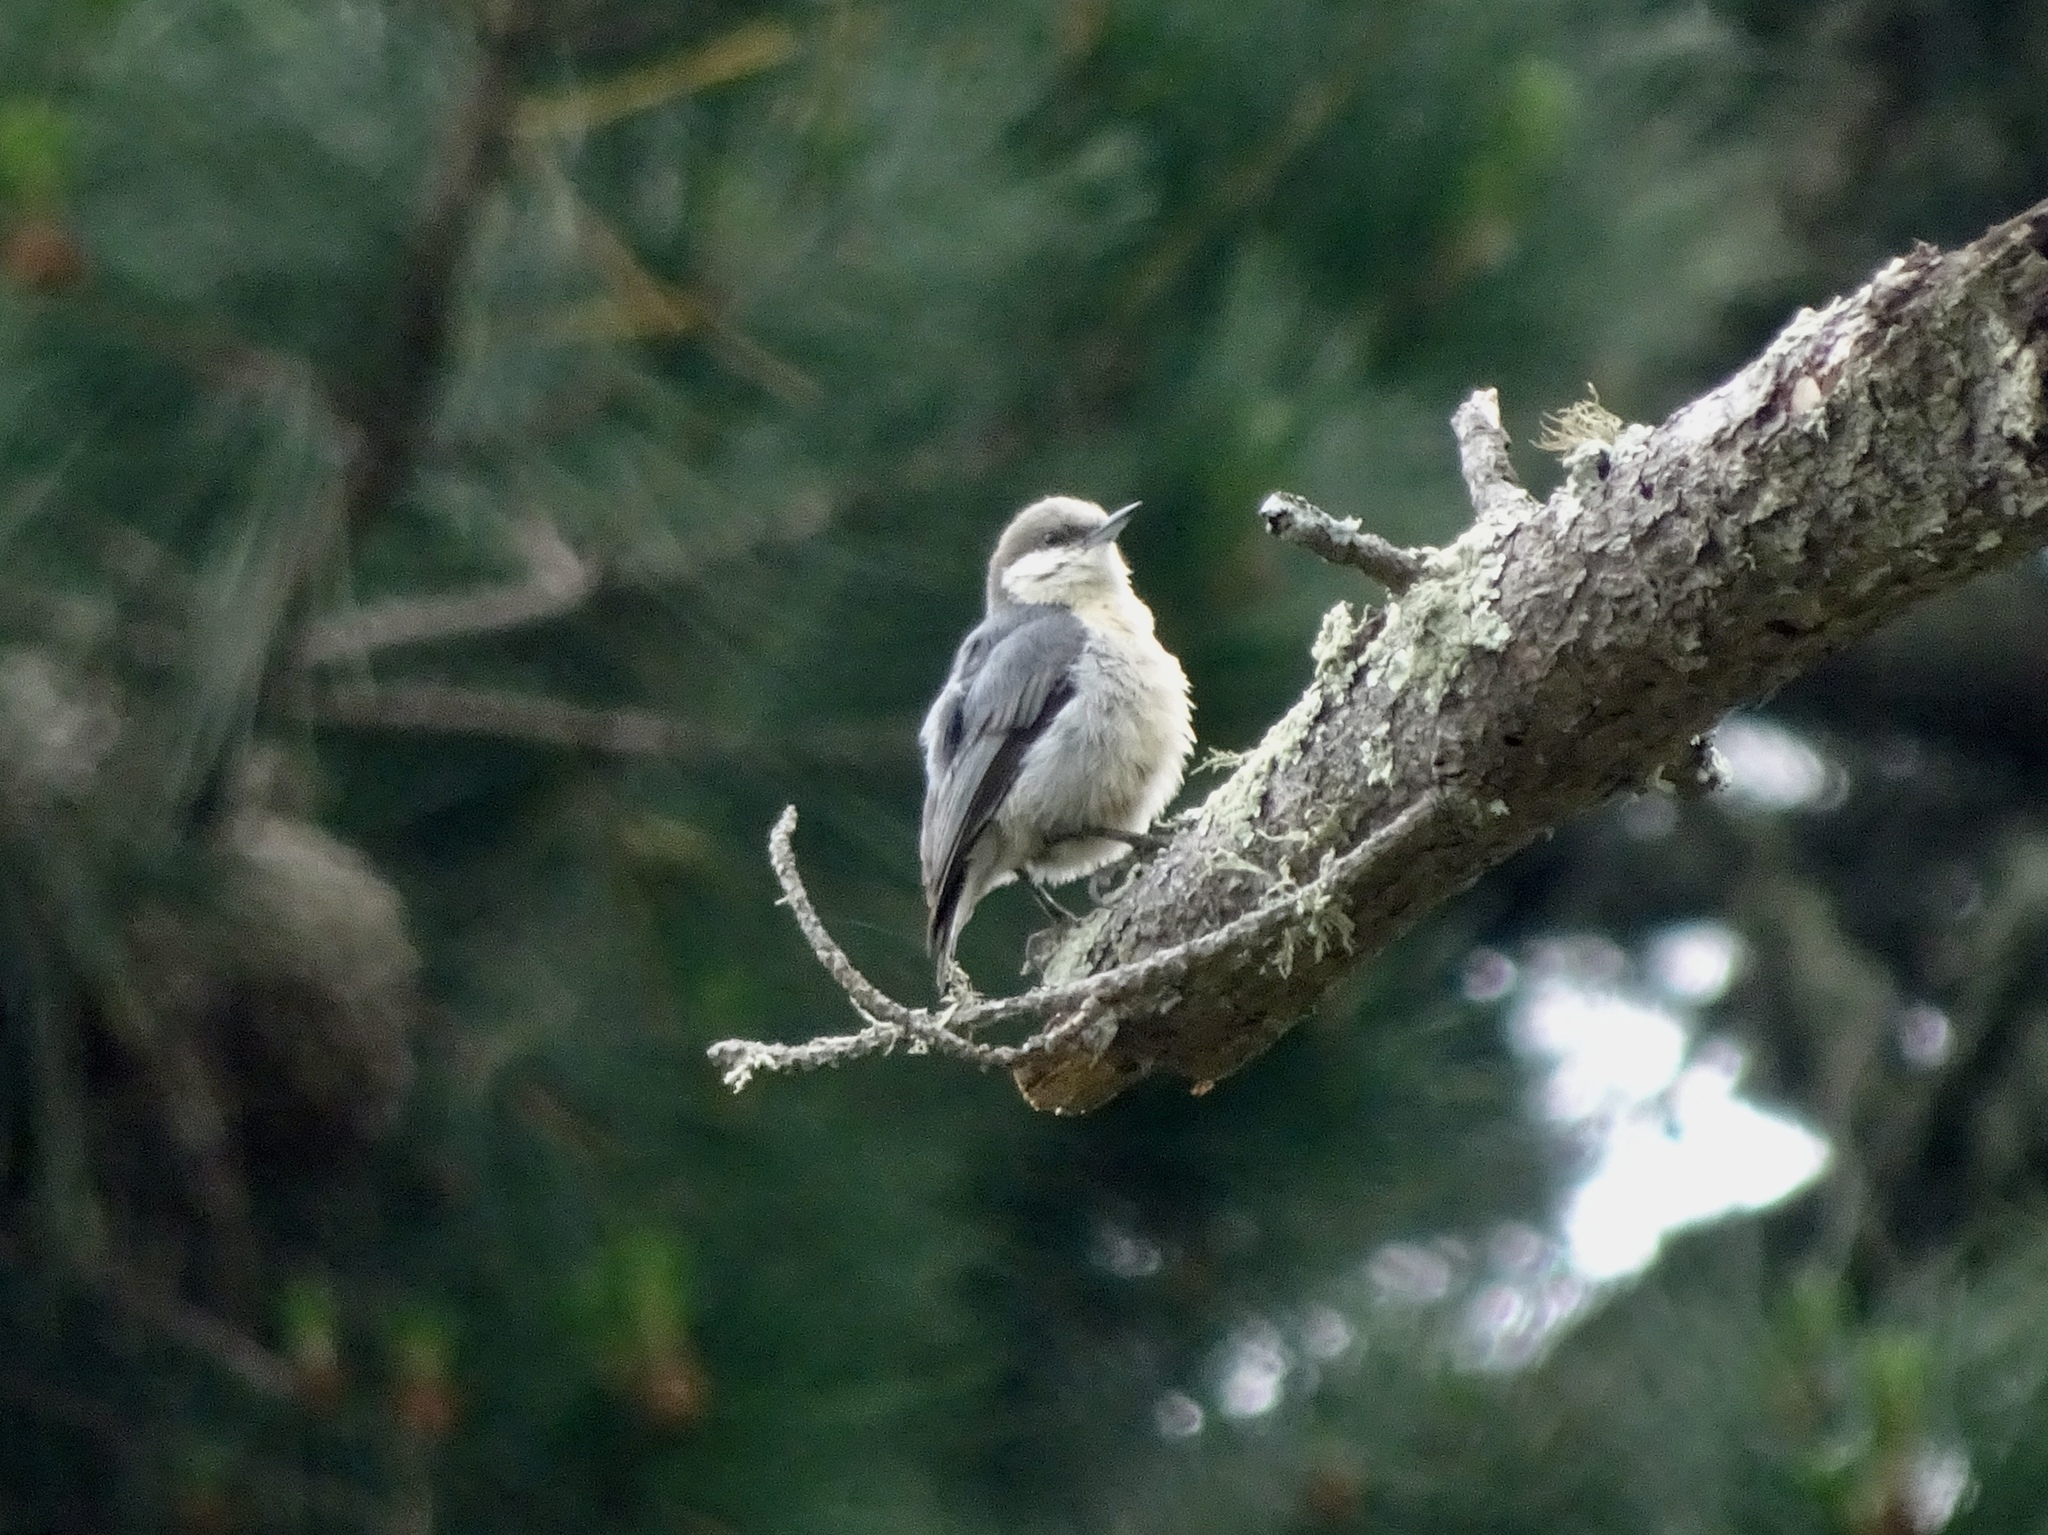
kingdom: Animalia
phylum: Chordata
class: Aves
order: Passeriformes
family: Sittidae
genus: Sitta
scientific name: Sitta pygmaea
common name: Pygmy nuthatch
